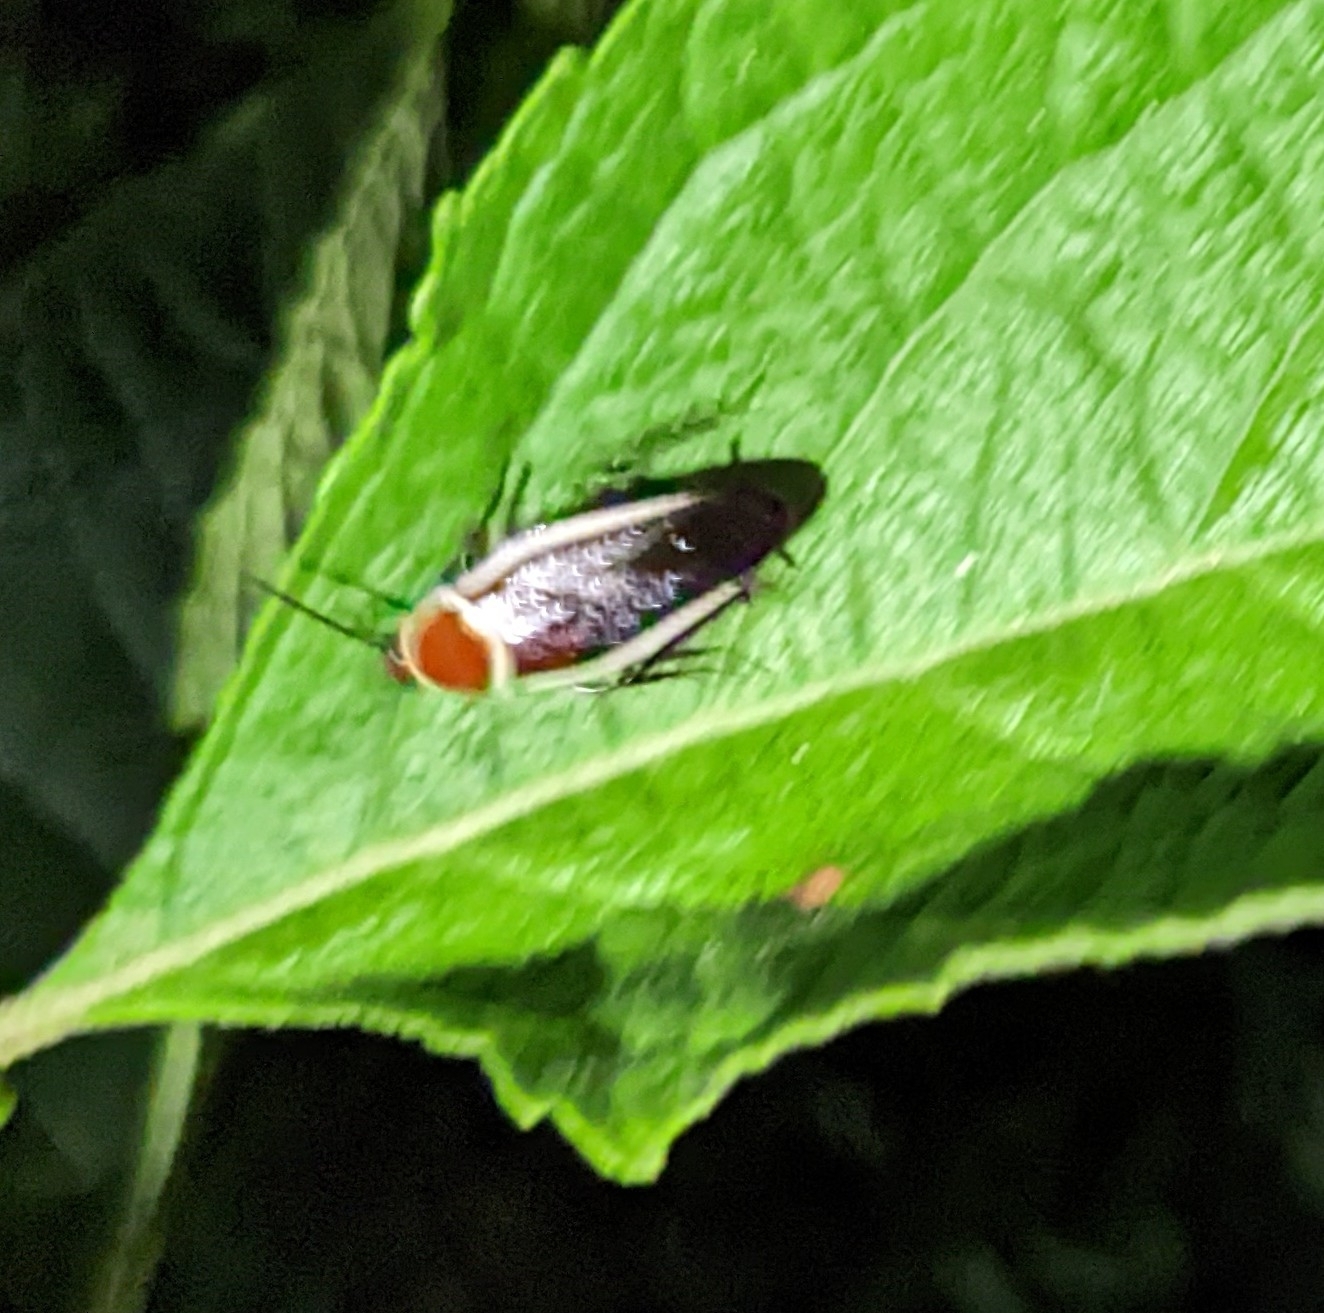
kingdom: Animalia
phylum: Arthropoda
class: Insecta
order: Blattodea
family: Ectobiidae
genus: Pseudomops
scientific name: Pseudomops septentrionalis
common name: Pale-bordered field cockroach
